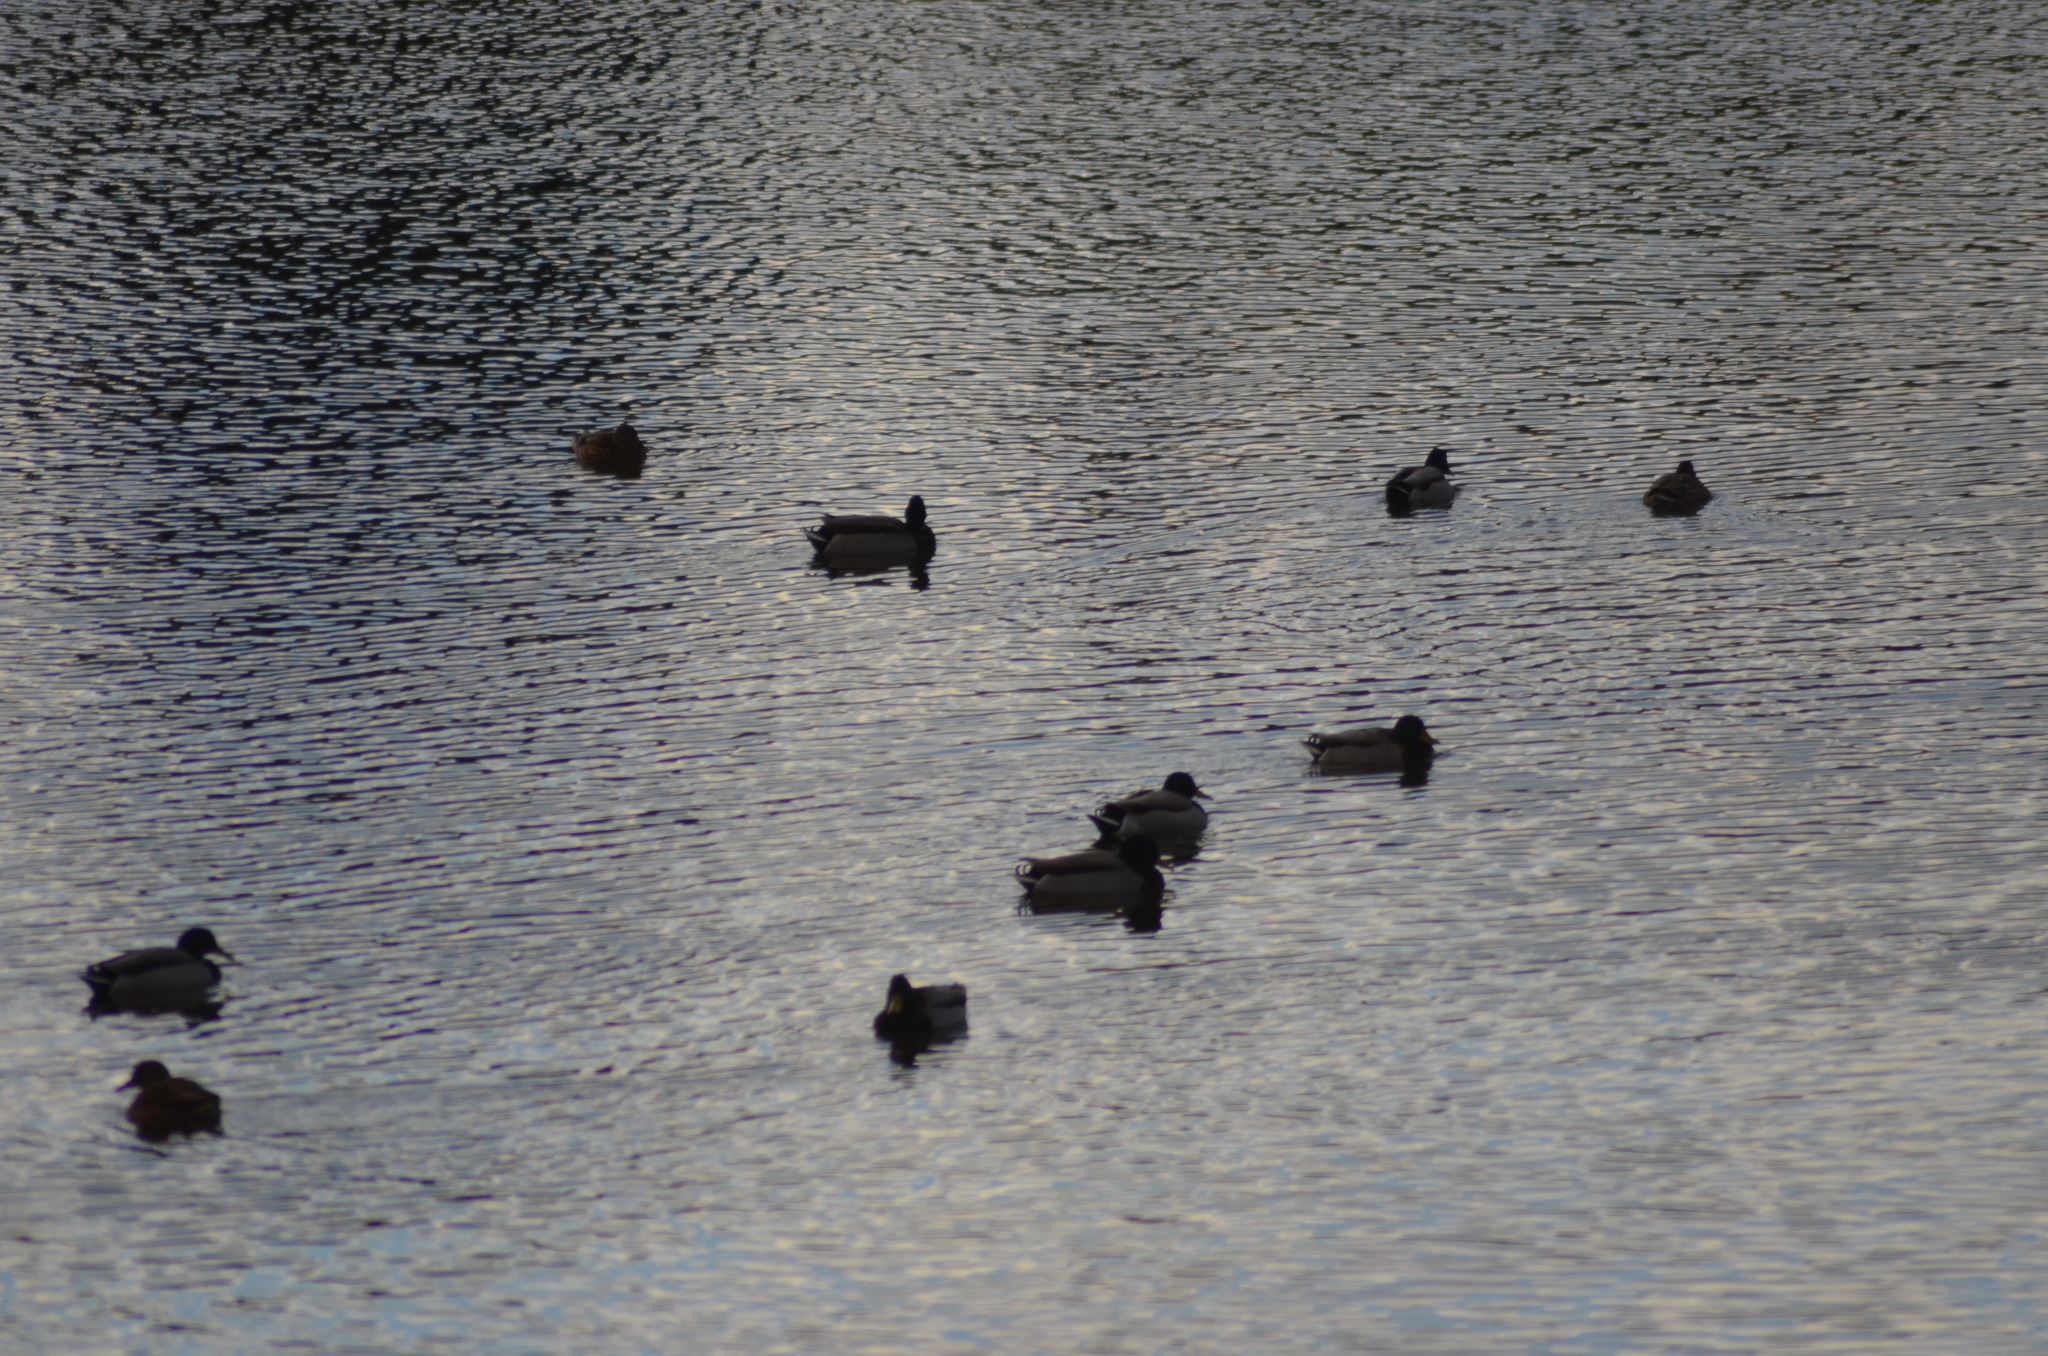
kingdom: Animalia
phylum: Chordata
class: Aves
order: Anseriformes
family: Anatidae
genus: Anas
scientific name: Anas platyrhynchos
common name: Mallard
